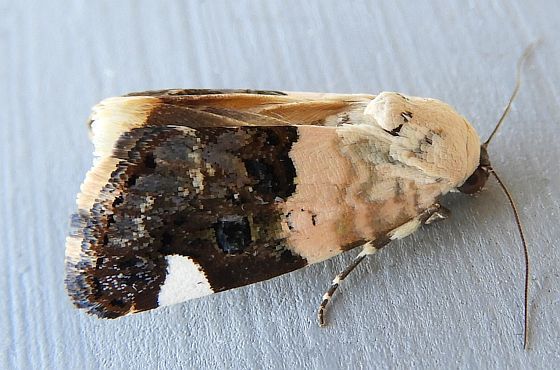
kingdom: Animalia
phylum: Arthropoda
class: Insecta
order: Lepidoptera
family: Noctuidae
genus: Acontia
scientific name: Acontia areli
